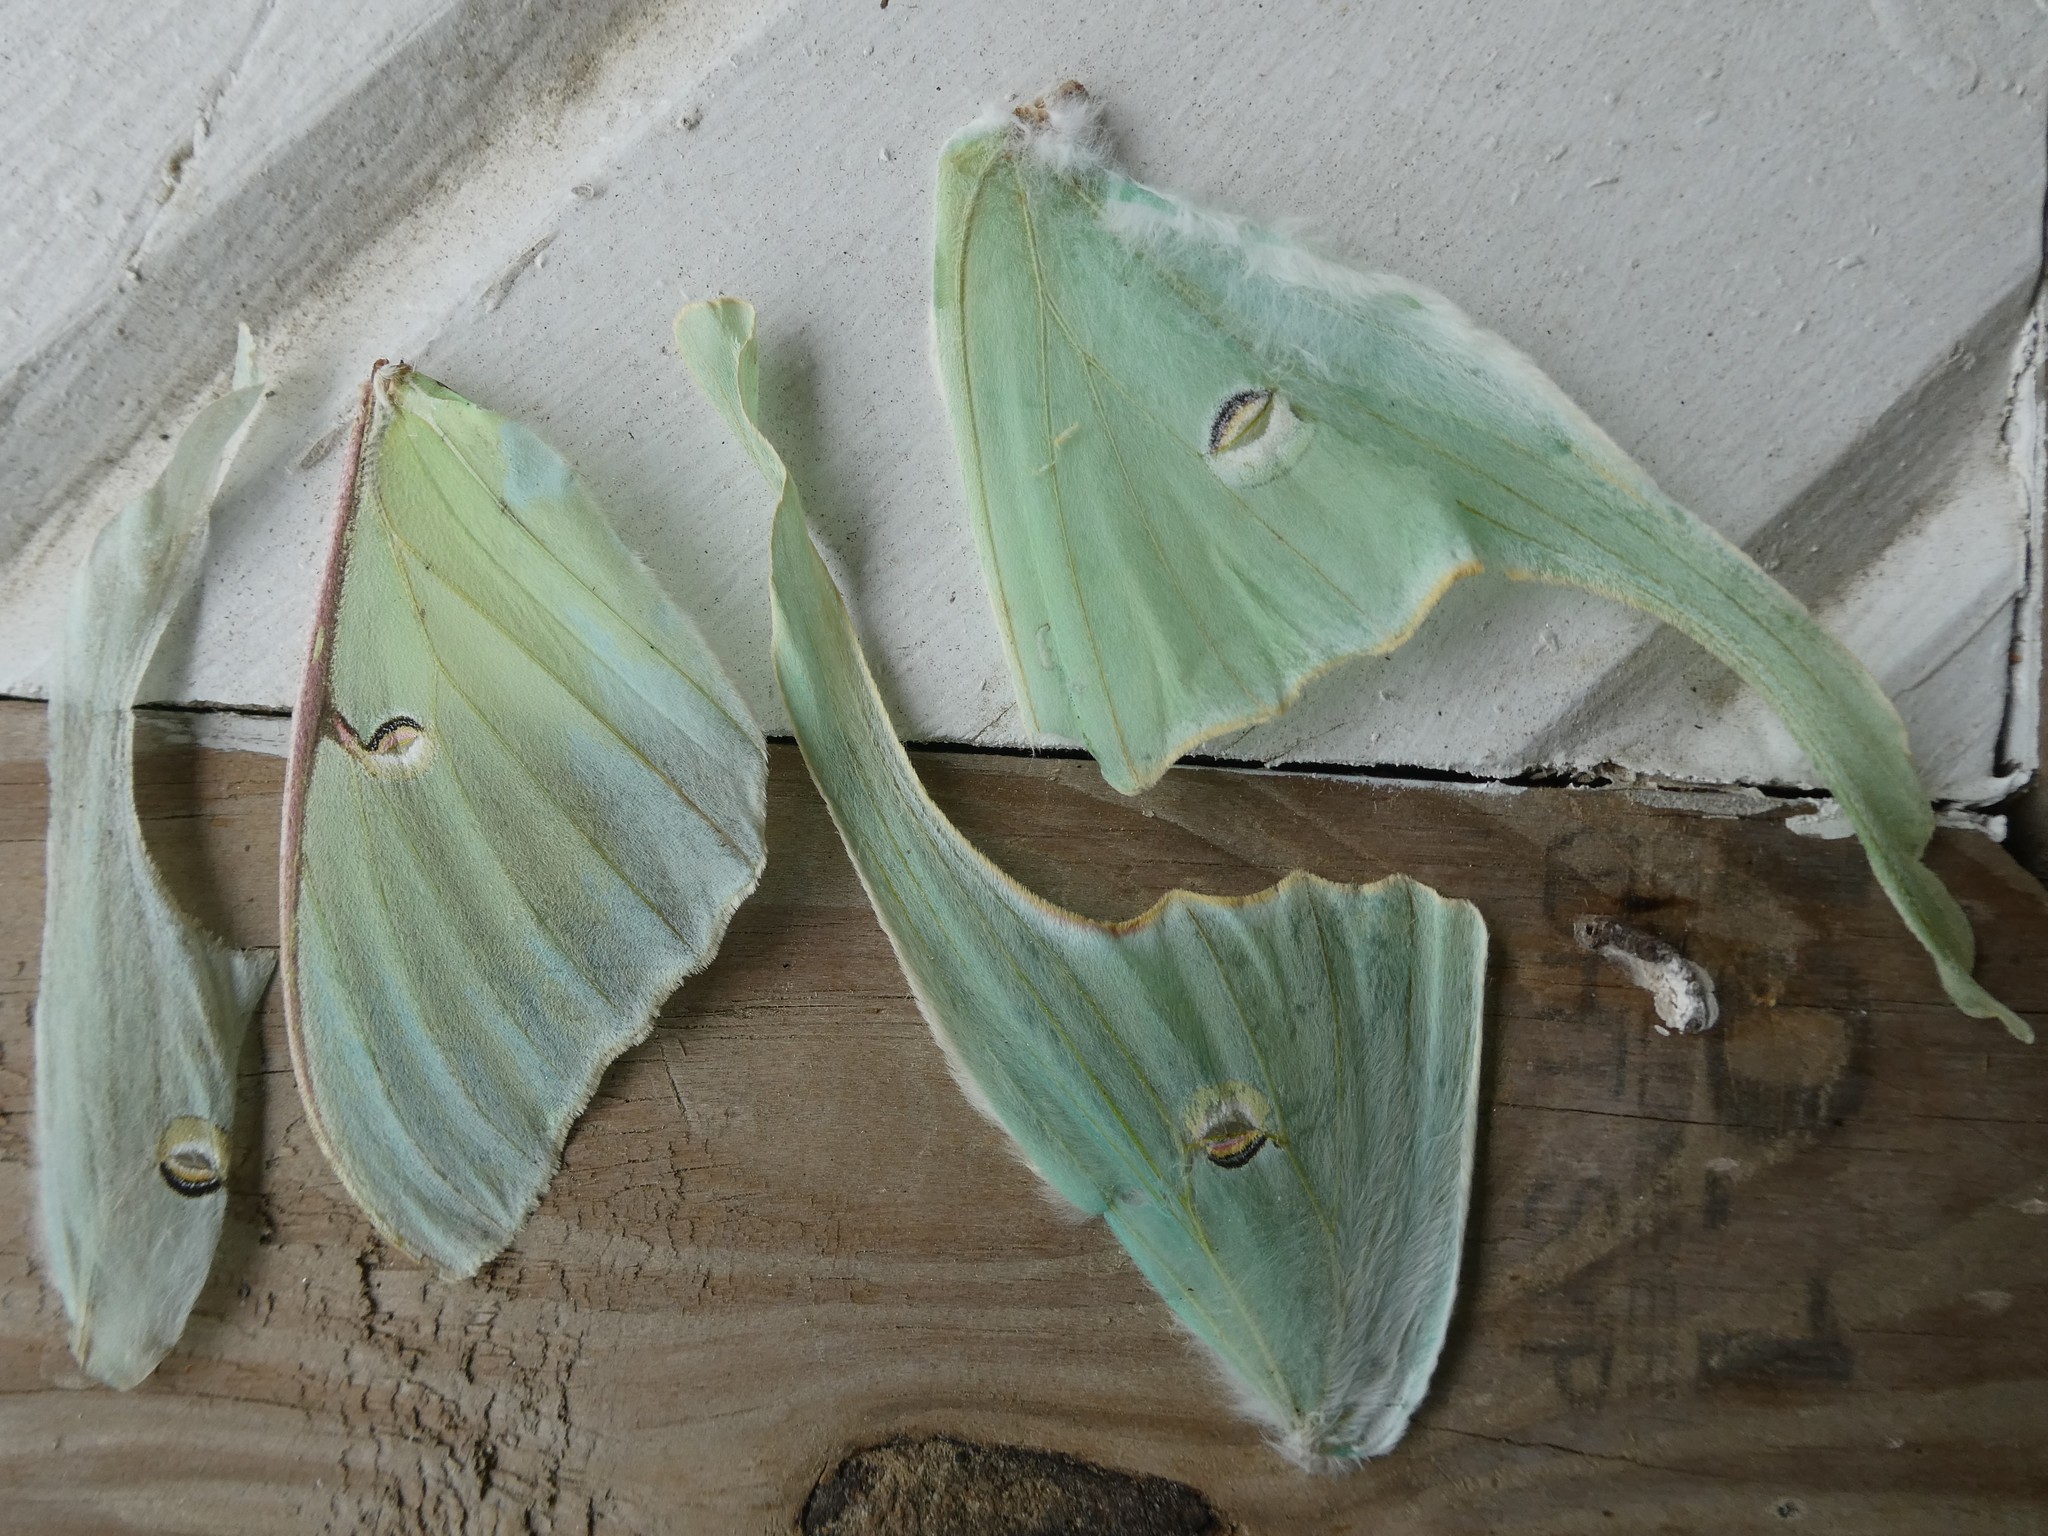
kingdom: Animalia
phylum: Arthropoda
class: Insecta
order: Lepidoptera
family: Saturniidae
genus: Actias
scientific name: Actias luna
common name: Luna moth
